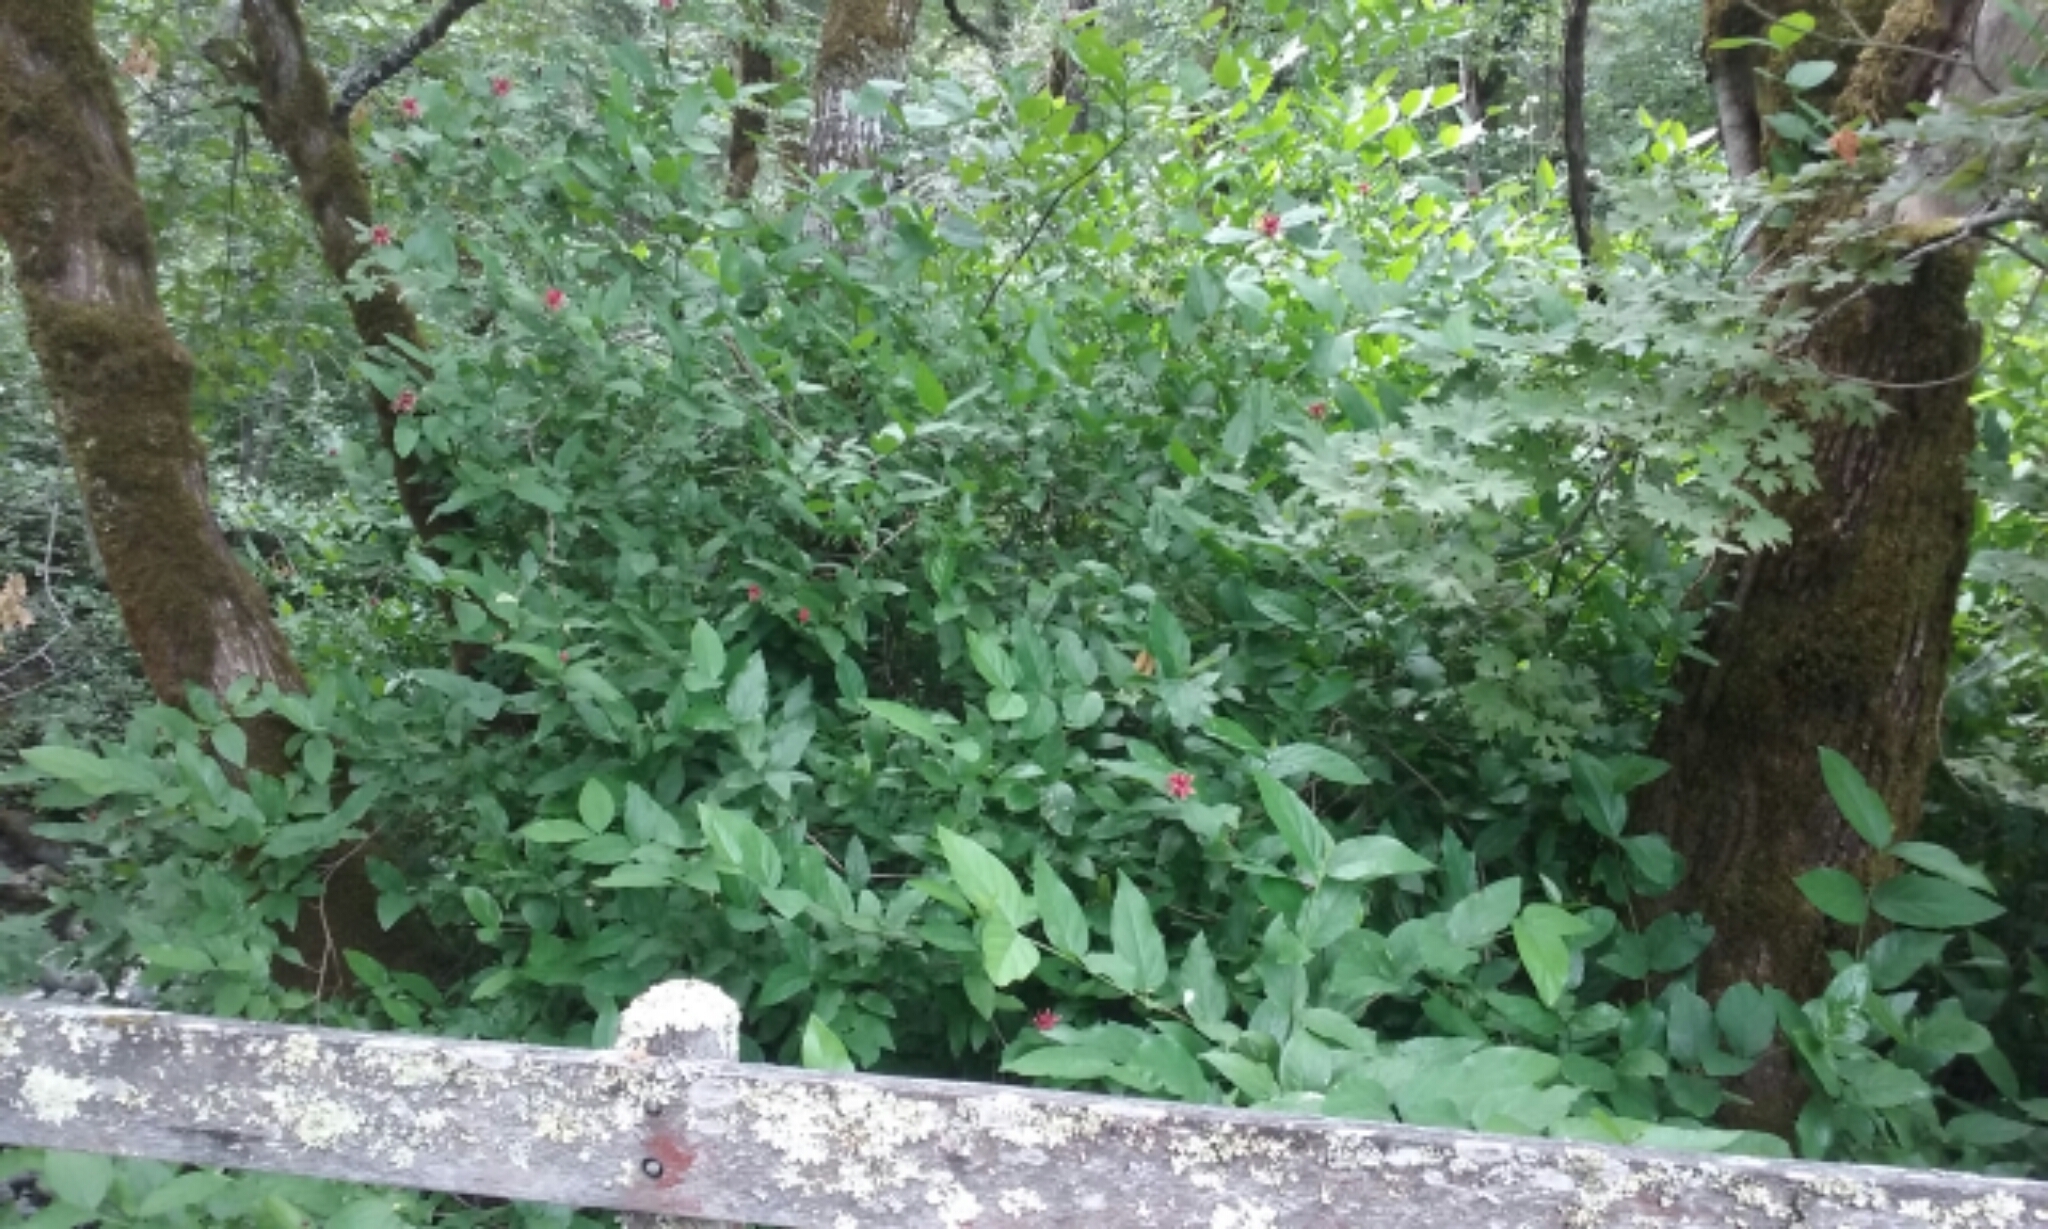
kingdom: Plantae
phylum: Tracheophyta
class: Magnoliopsida
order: Laurales
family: Calycanthaceae
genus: Calycanthus
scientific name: Calycanthus occidentalis
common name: California spicebush
